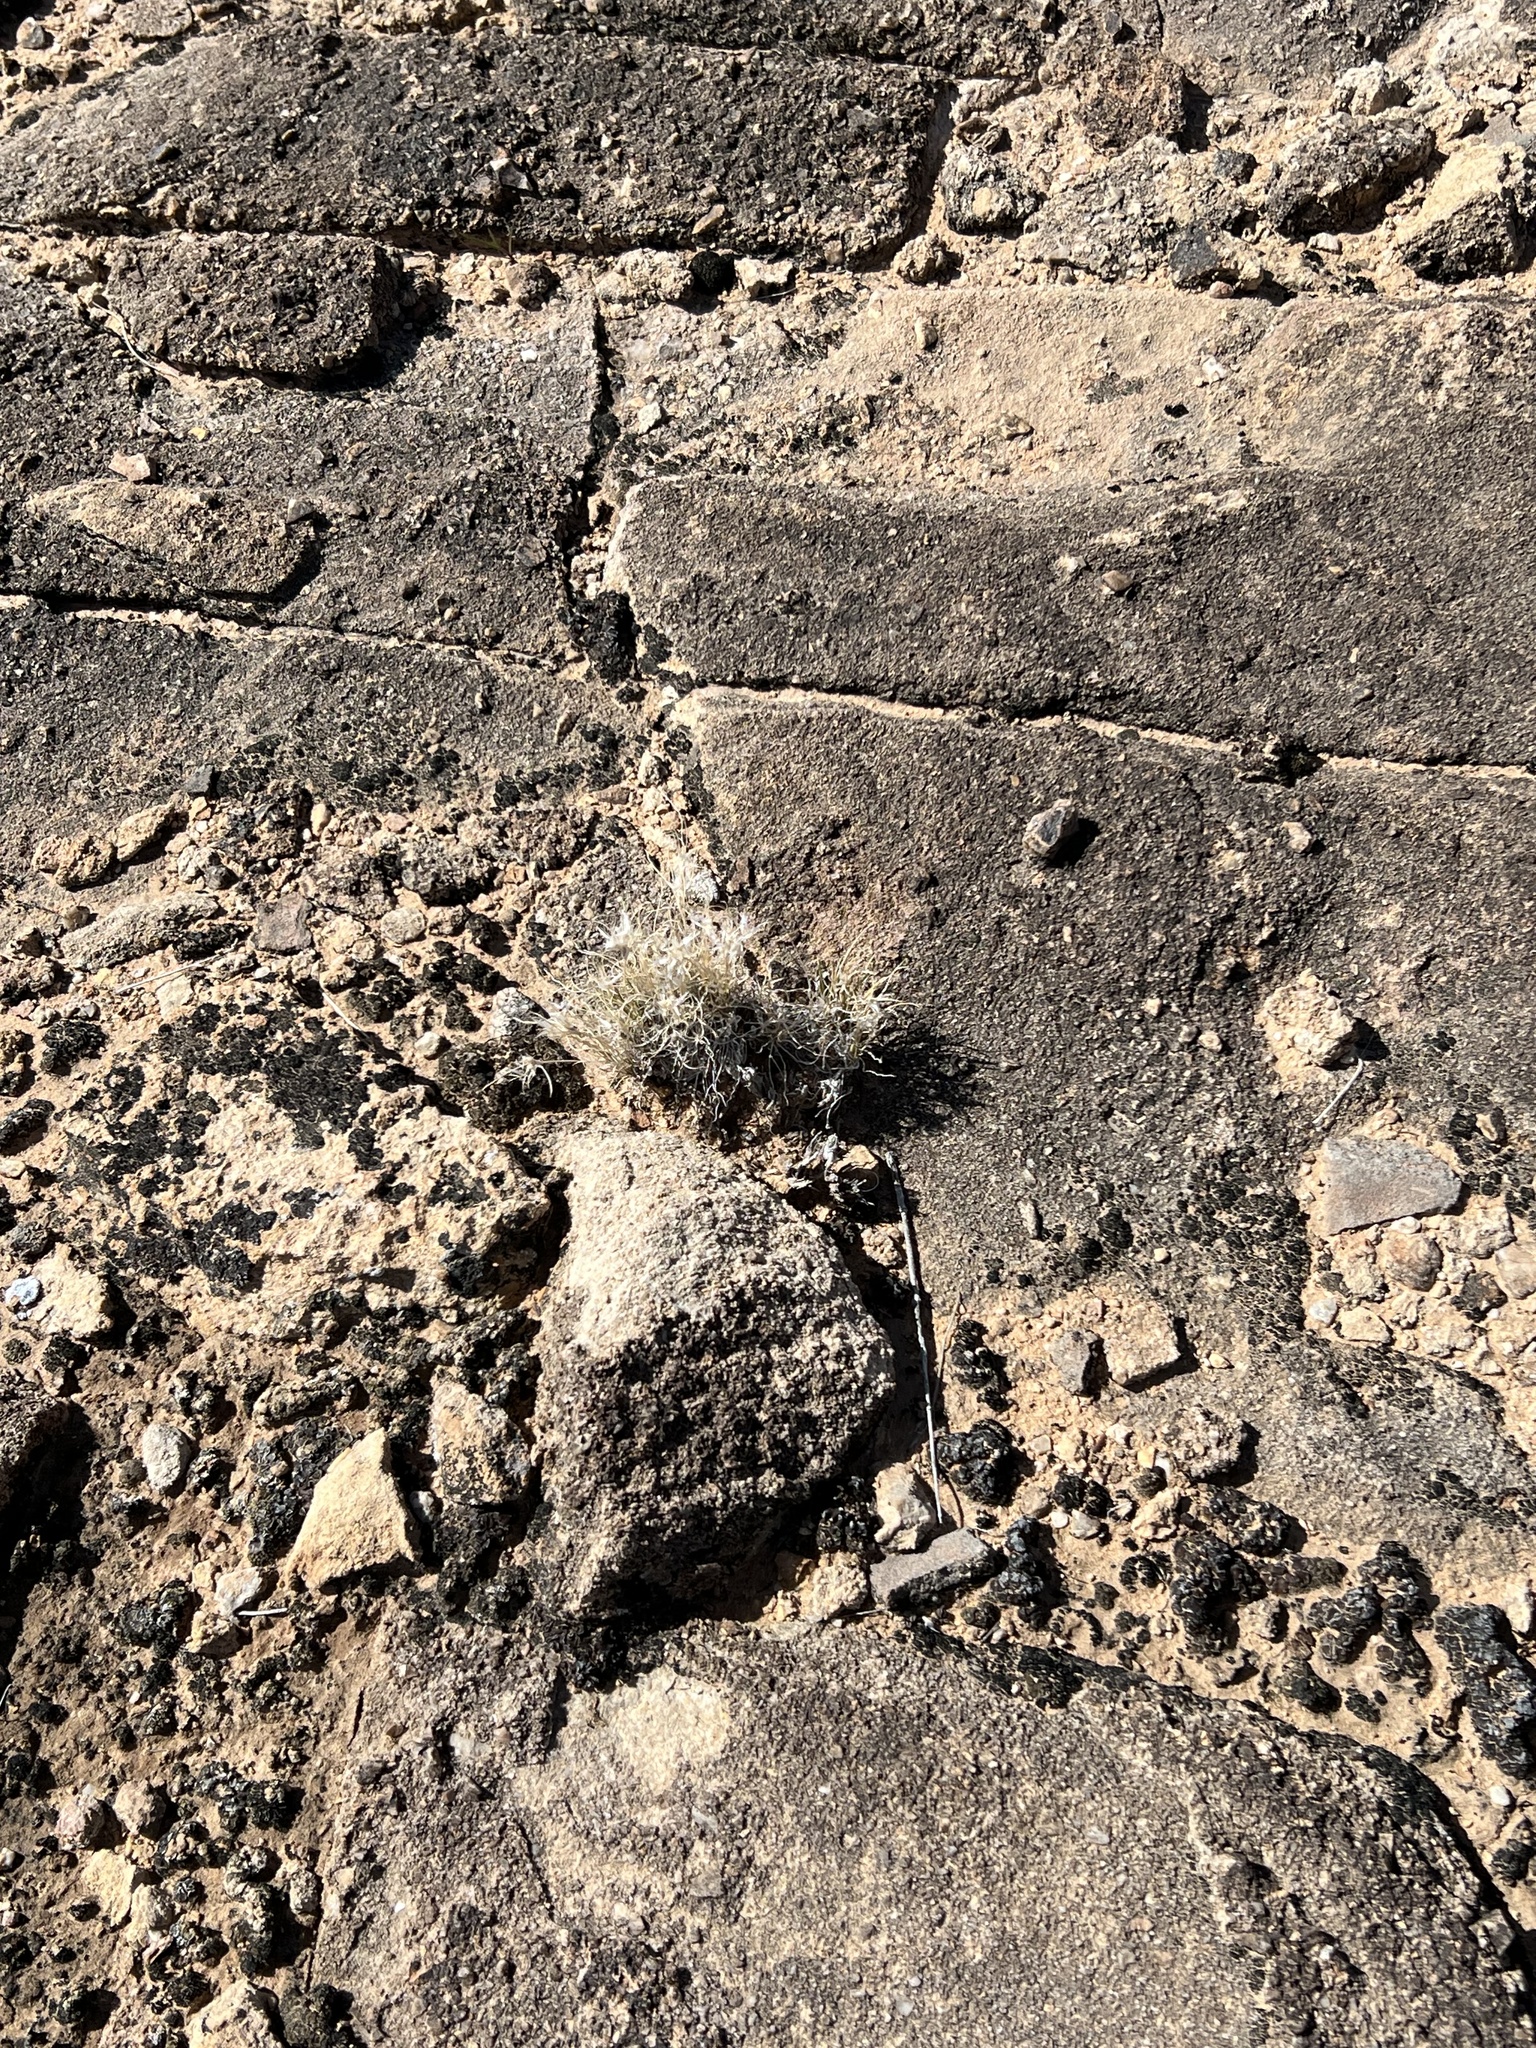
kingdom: Plantae
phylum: Tracheophyta
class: Liliopsida
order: Poales
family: Poaceae
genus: Dasyochloa
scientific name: Dasyochloa pulchella
